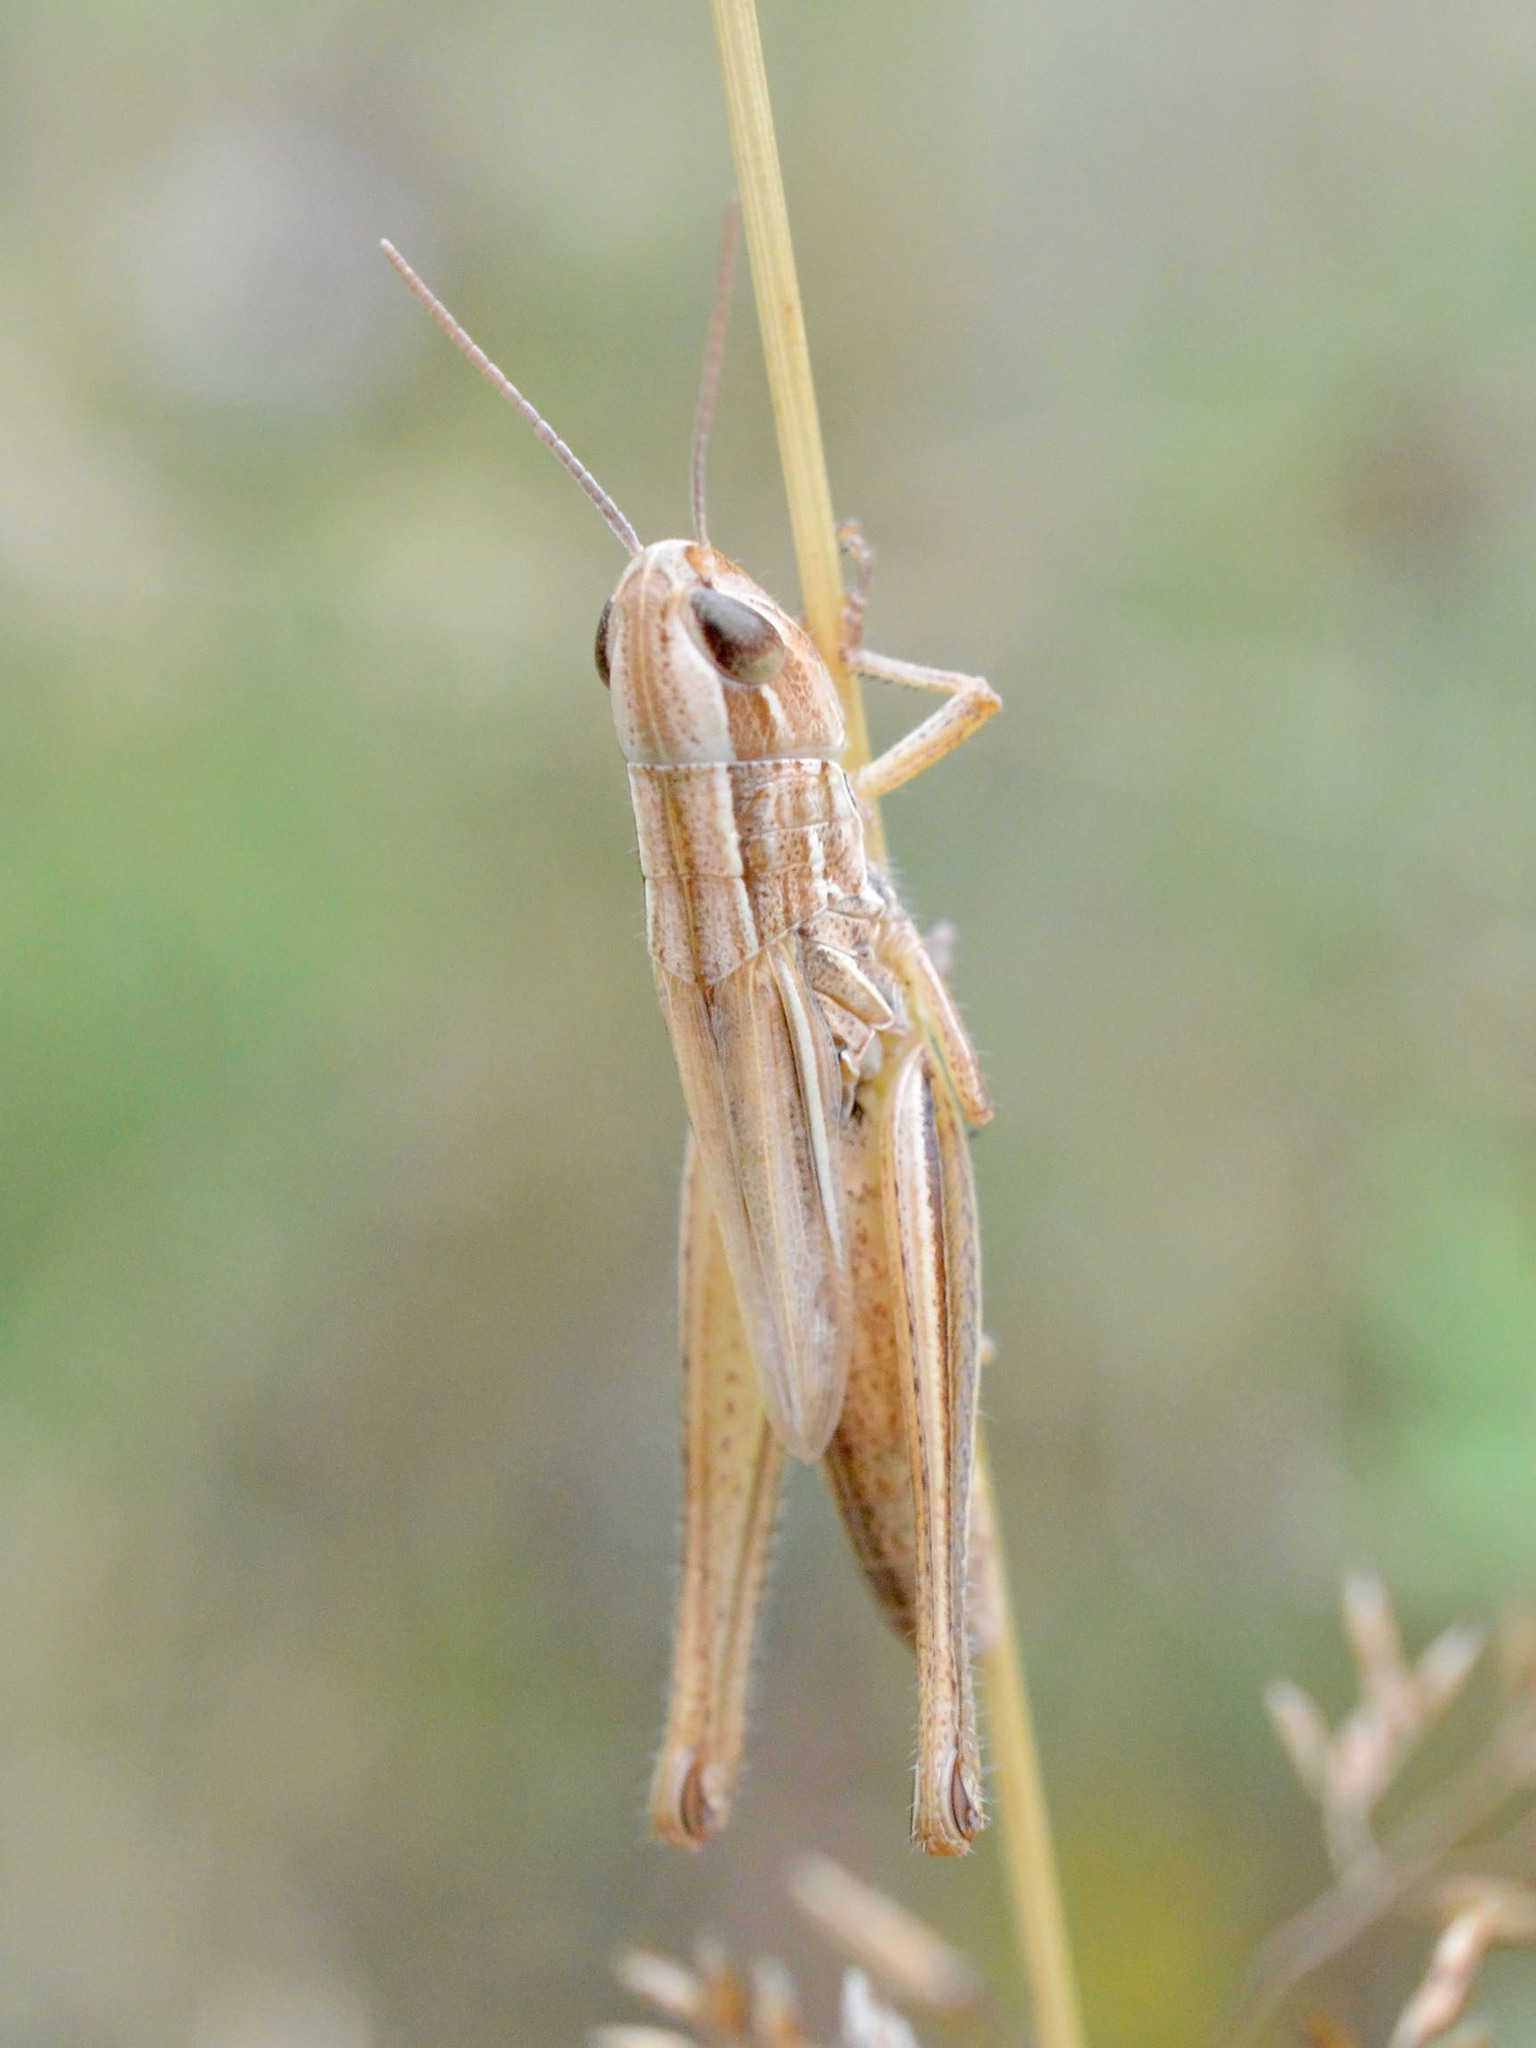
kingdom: Animalia
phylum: Arthropoda
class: Insecta
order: Orthoptera
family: Acrididae
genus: Euchorthippus
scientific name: Euchorthippus declivus
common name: Common straw grasshopper
